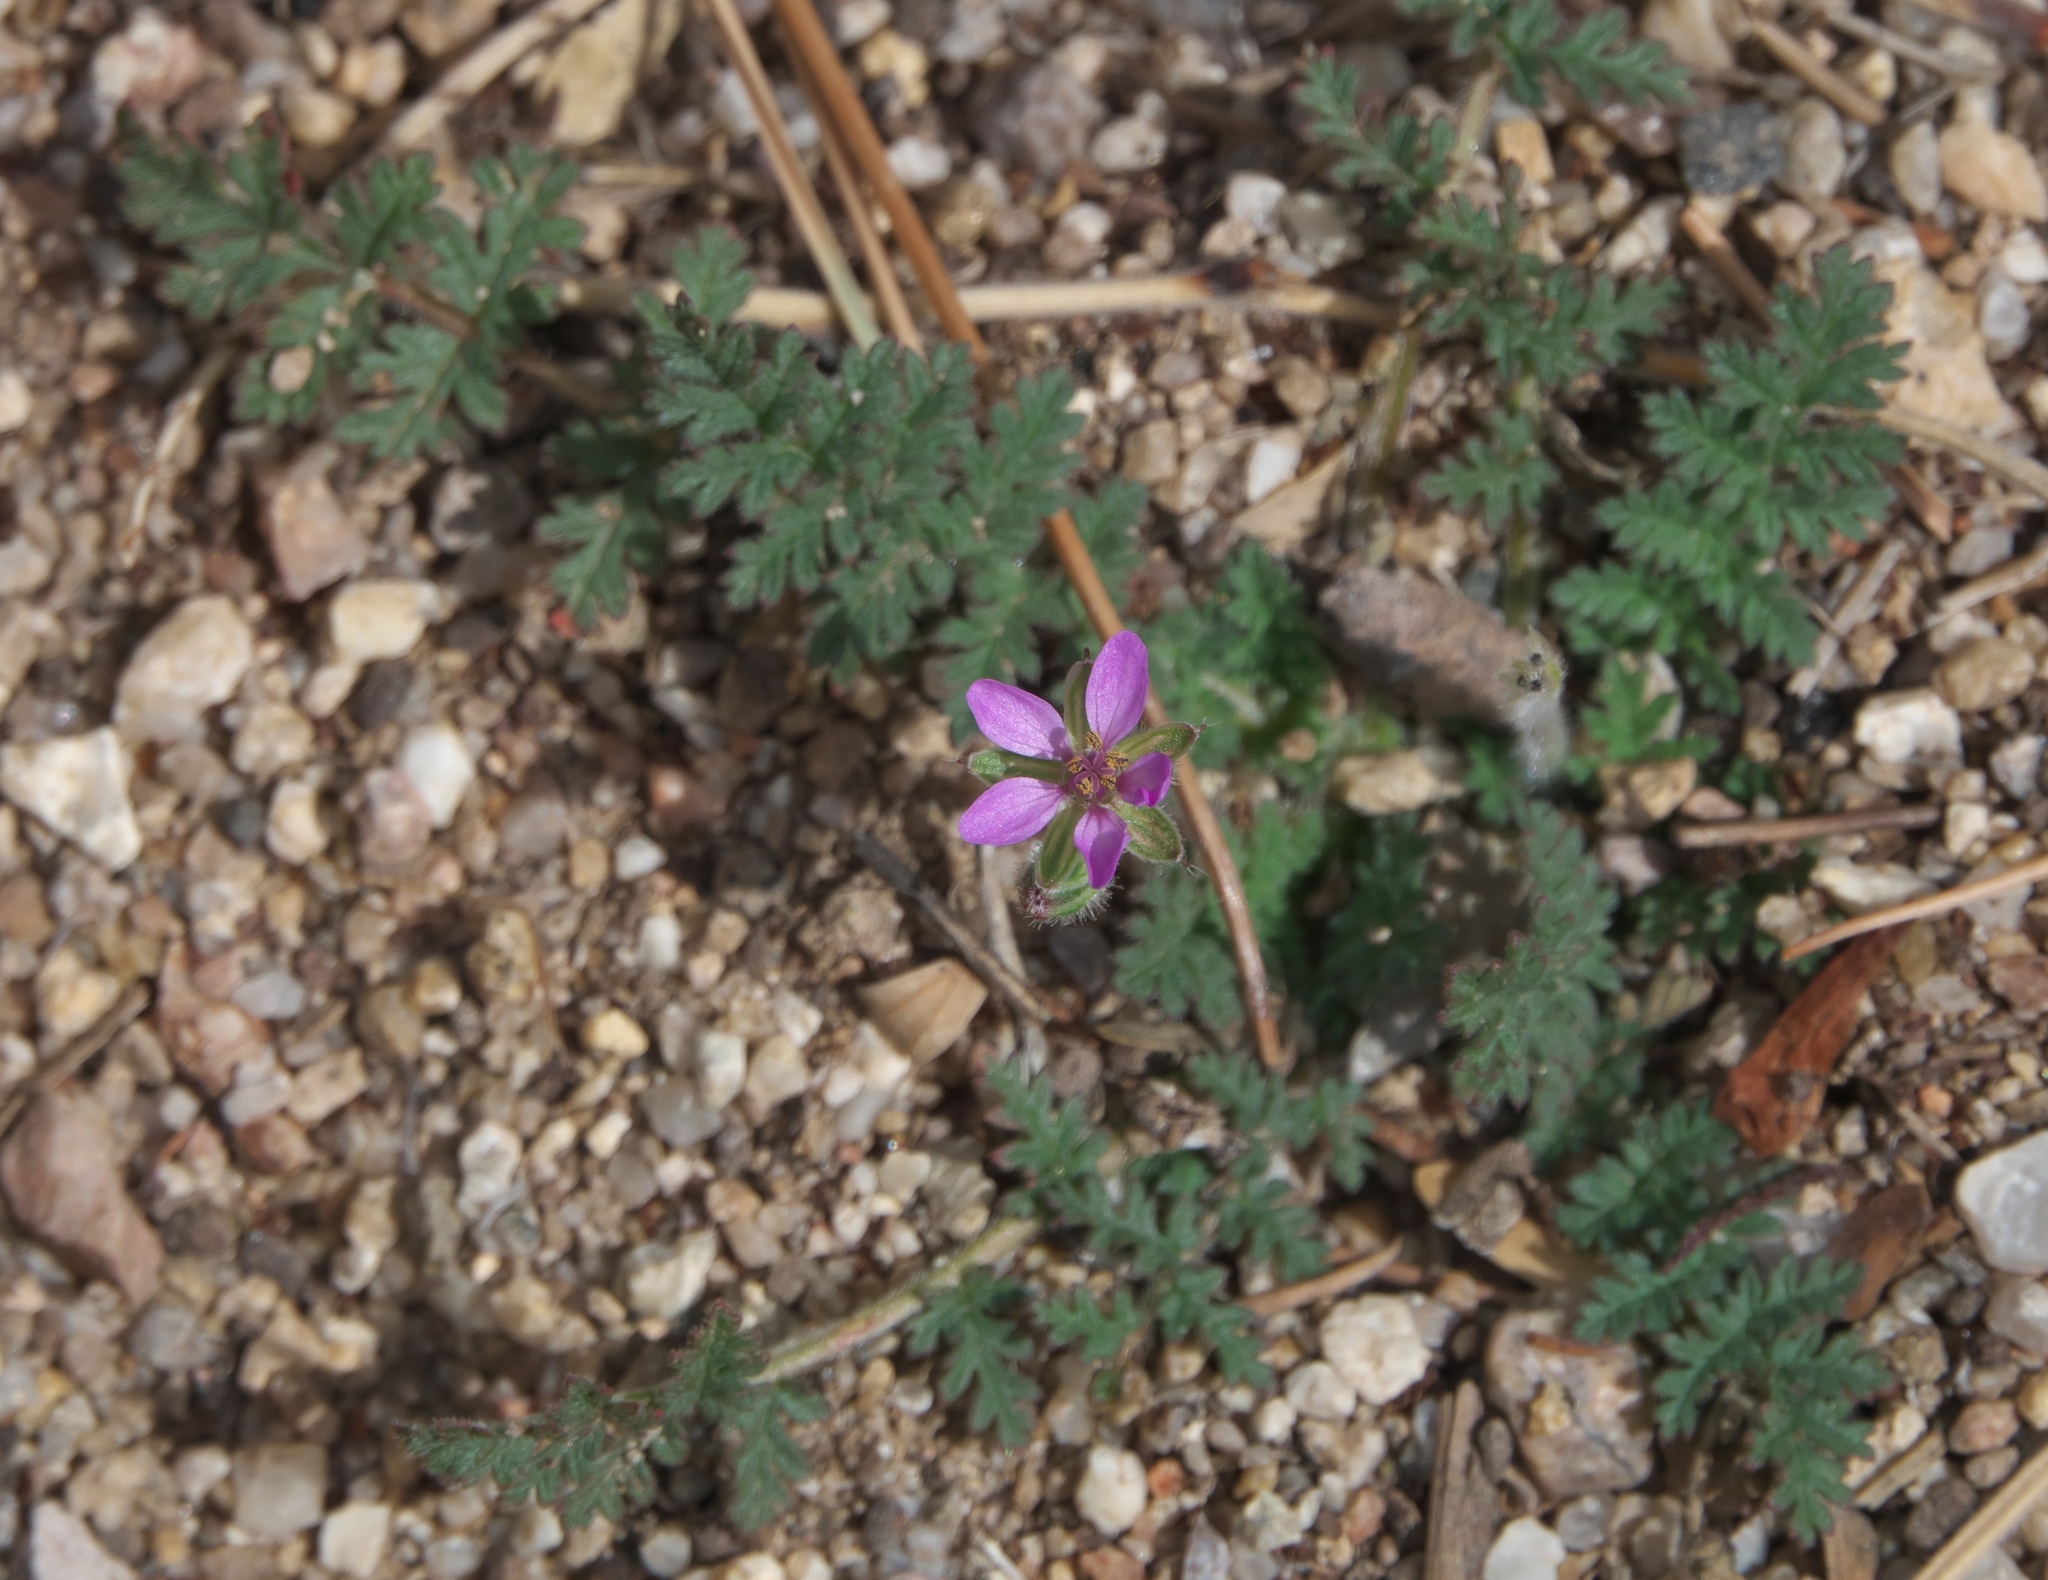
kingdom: Plantae
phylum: Tracheophyta
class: Magnoliopsida
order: Geraniales
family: Geraniaceae
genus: Erodium
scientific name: Erodium cicutarium
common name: Common stork's-bill
